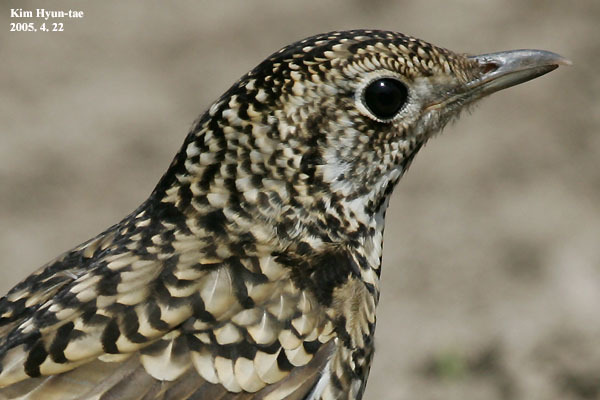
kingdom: Animalia
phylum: Chordata
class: Aves
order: Passeriformes
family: Turdidae
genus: Zoothera
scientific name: Zoothera aurea
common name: White's thrush
